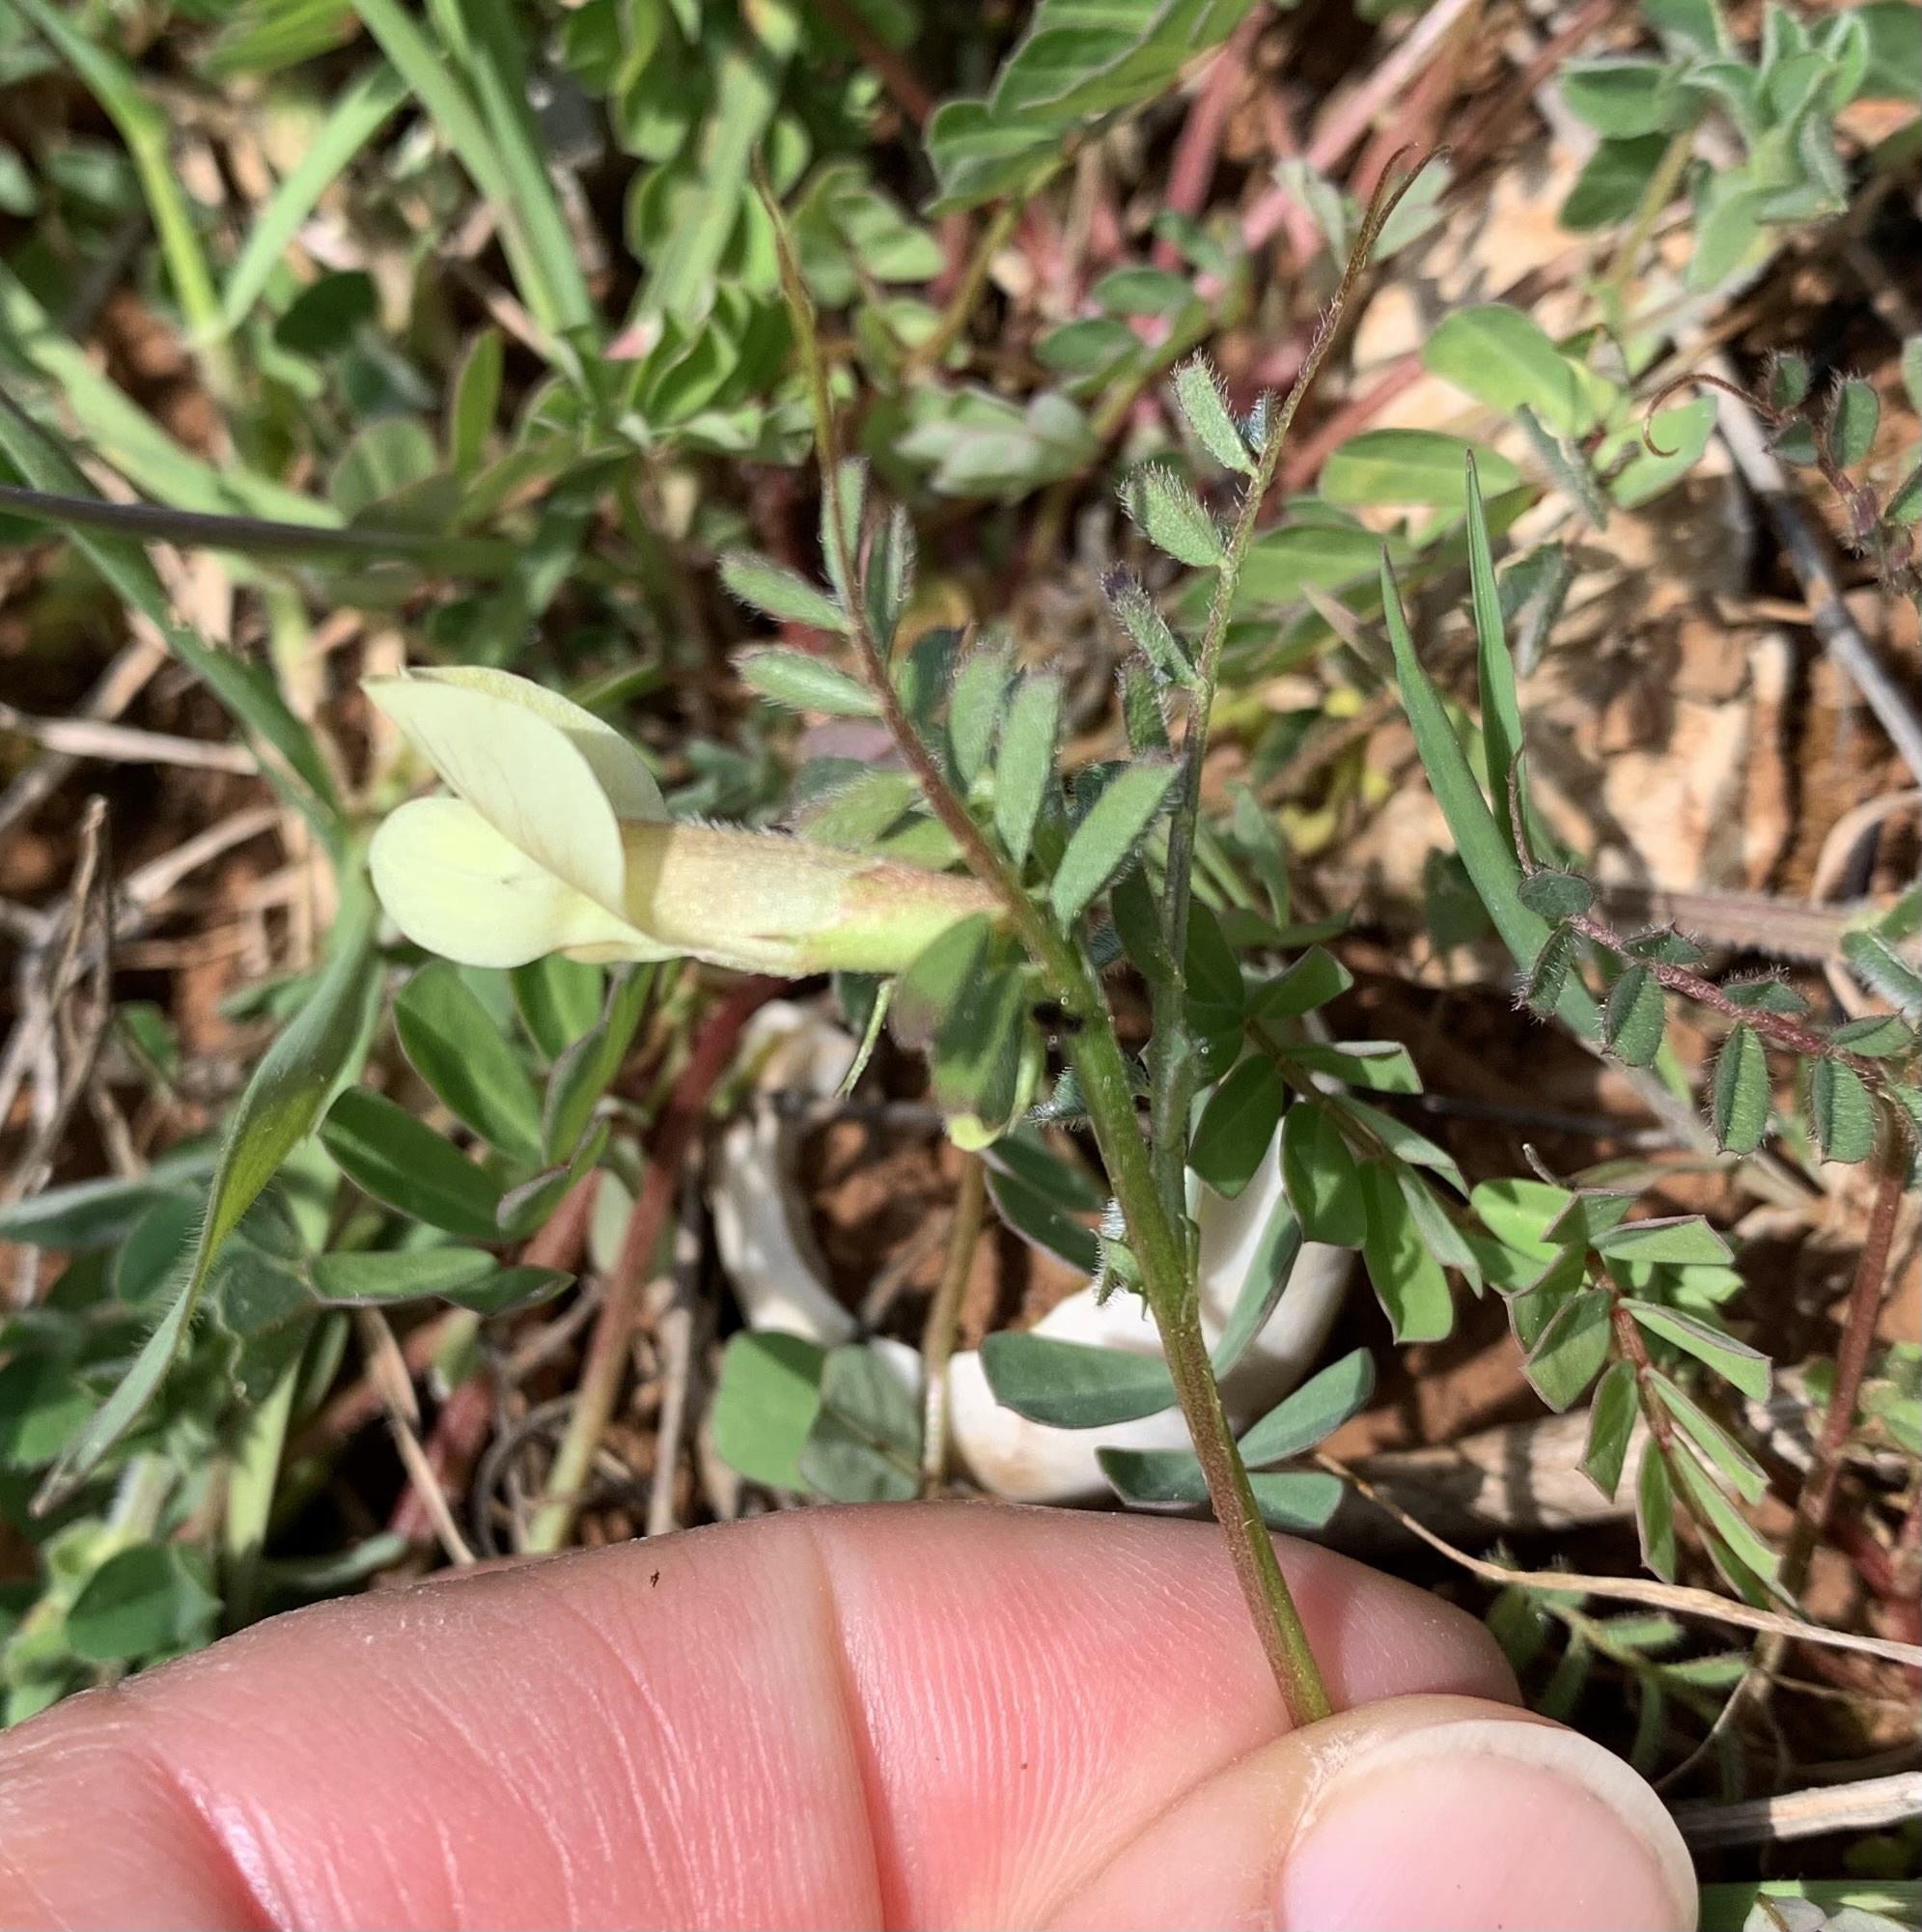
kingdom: Plantae
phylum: Tracheophyta
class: Magnoliopsida
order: Fabales
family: Fabaceae
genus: Vicia
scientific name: Vicia hybrida
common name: Hairy yellow vetch
